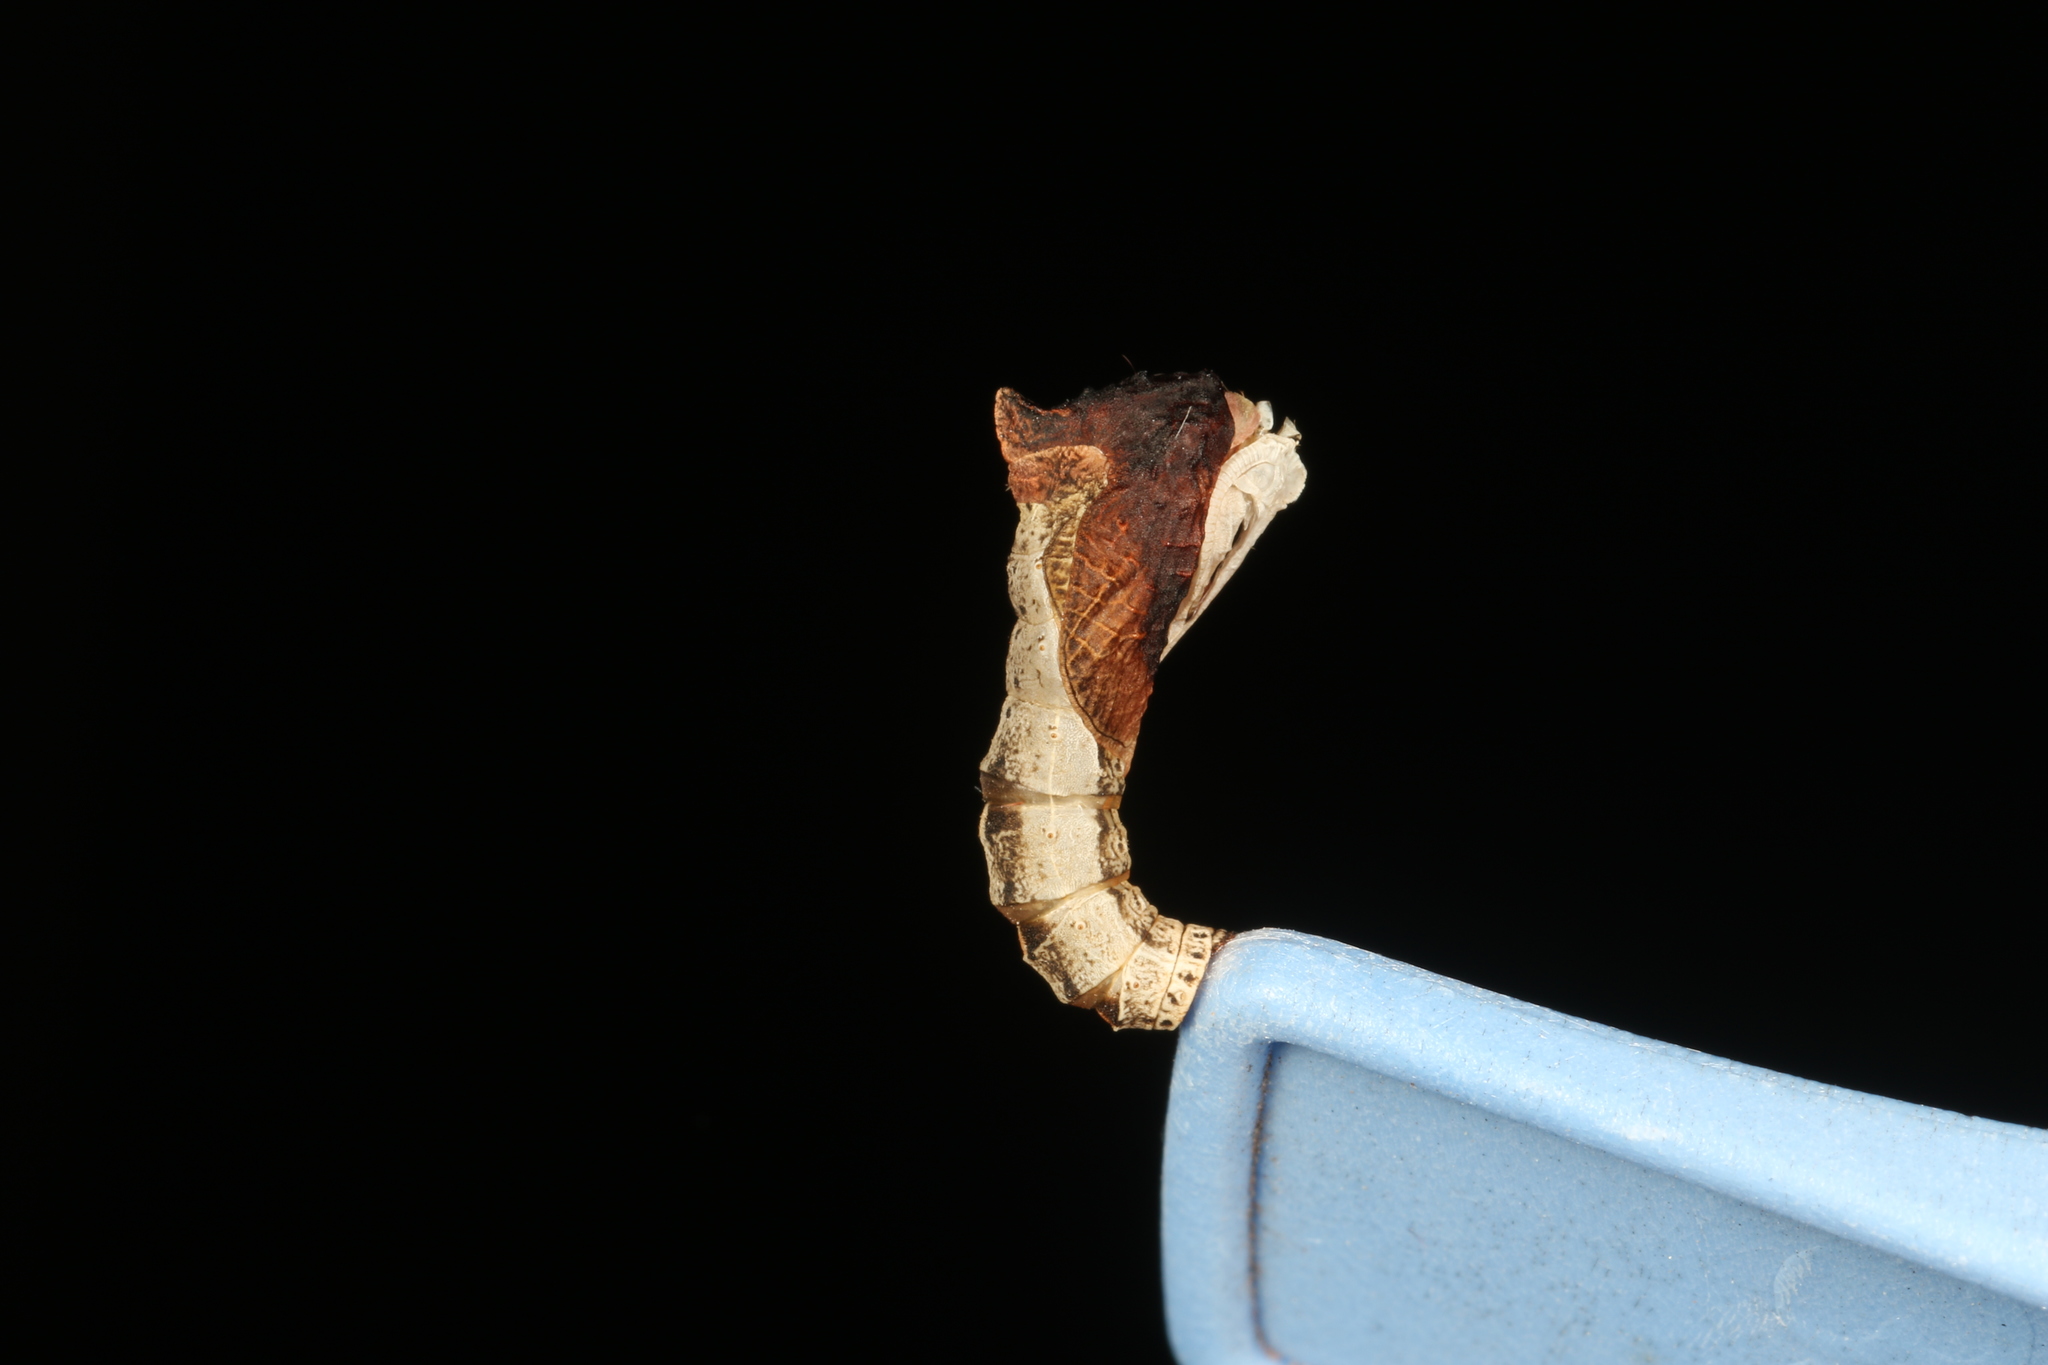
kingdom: Animalia
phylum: Arthropoda
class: Insecta
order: Lepidoptera
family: Depressariidae
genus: Peritropha
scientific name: Peritropha oligodrachma
